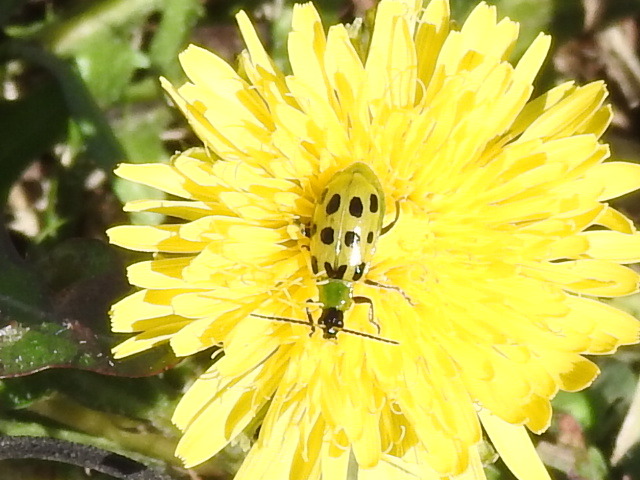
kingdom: Animalia
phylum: Arthropoda
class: Insecta
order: Coleoptera
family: Chrysomelidae
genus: Diabrotica
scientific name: Diabrotica undecimpunctata
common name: Spotted cucumber beetle
